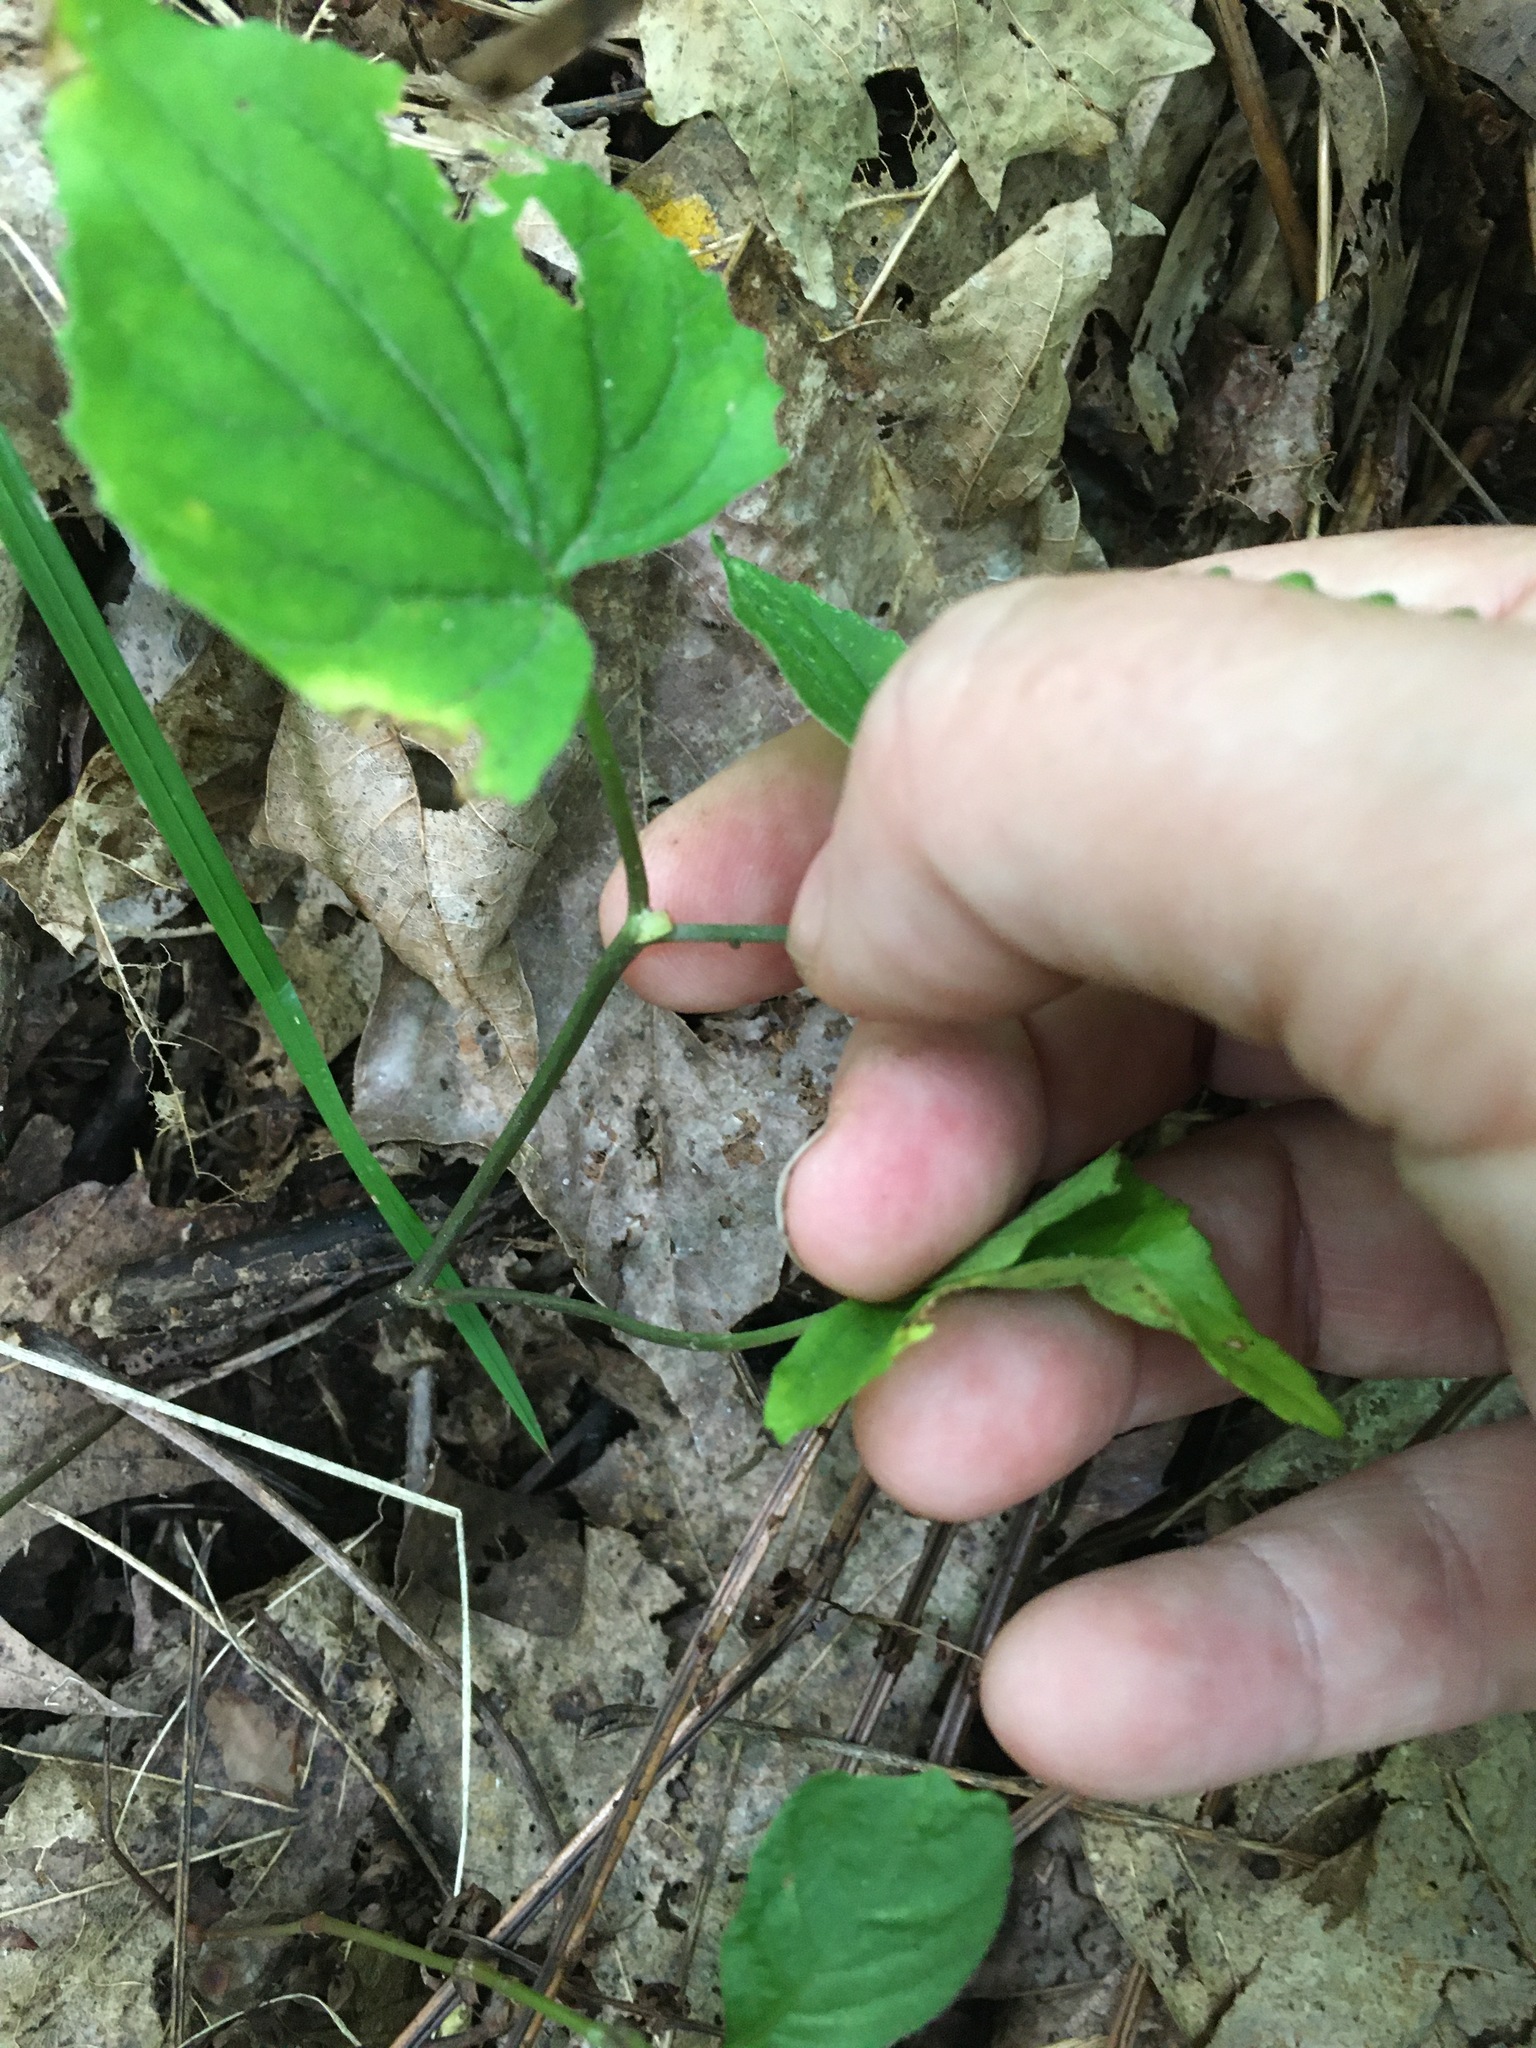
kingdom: Plantae
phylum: Tracheophyta
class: Magnoliopsida
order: Malpighiales
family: Violaceae
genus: Viola
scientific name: Viola eriocarpa
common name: Smooth yellow violet
